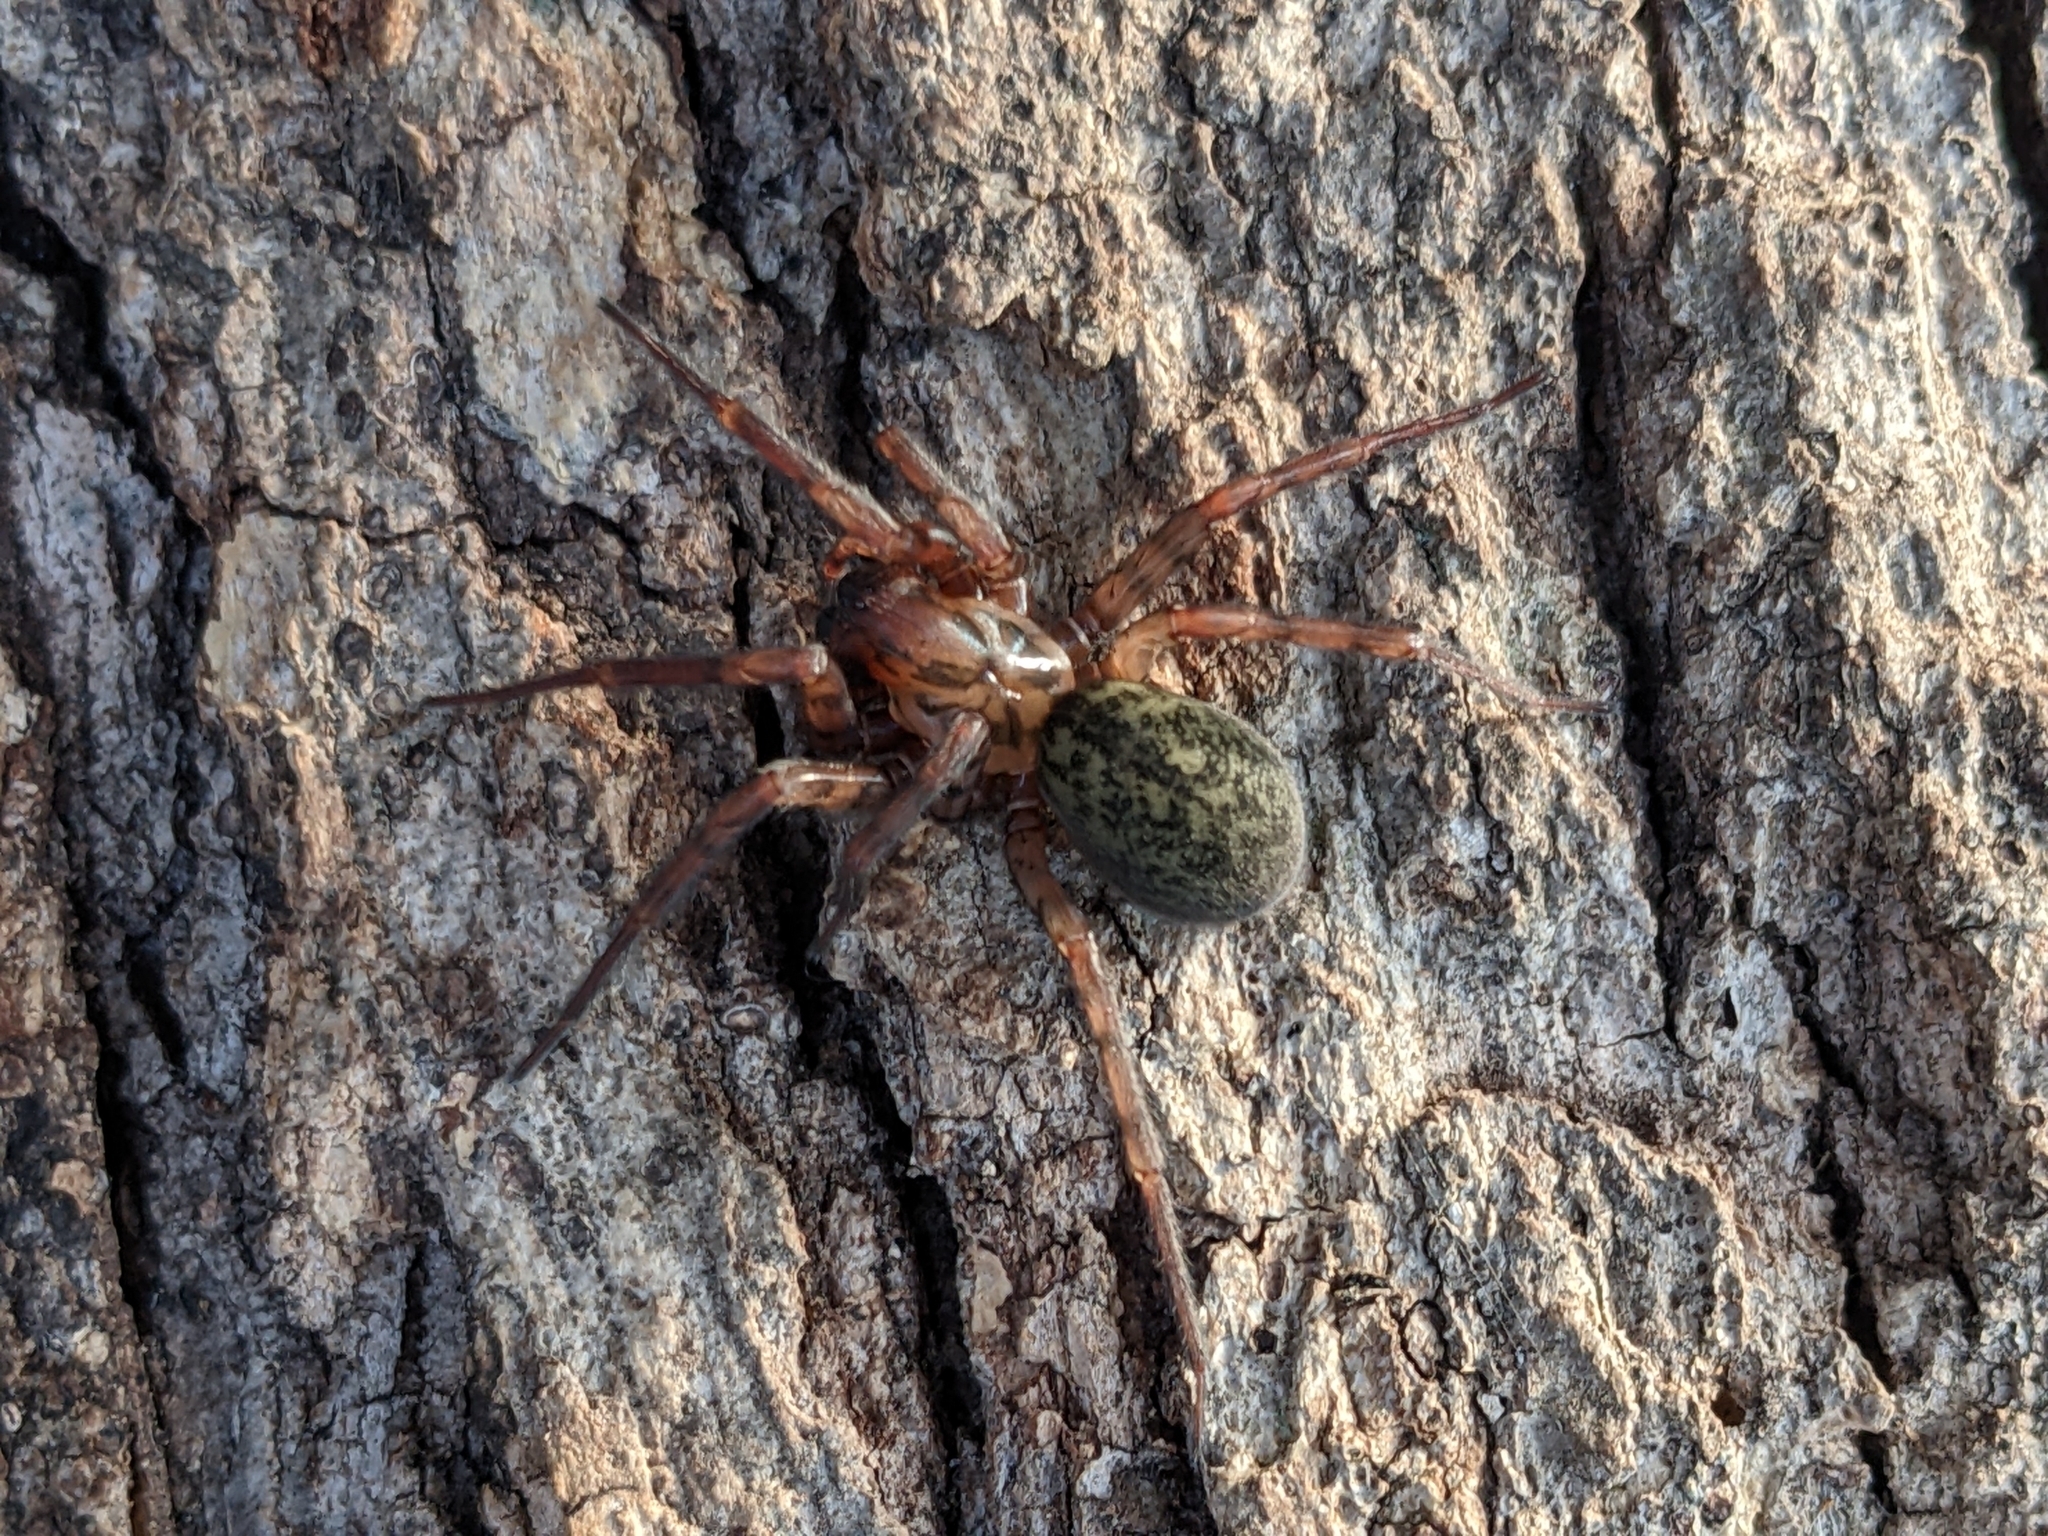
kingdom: Animalia
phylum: Arthropoda
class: Arachnida
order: Araneae
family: Agelenidae
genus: Coras
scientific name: Coras
